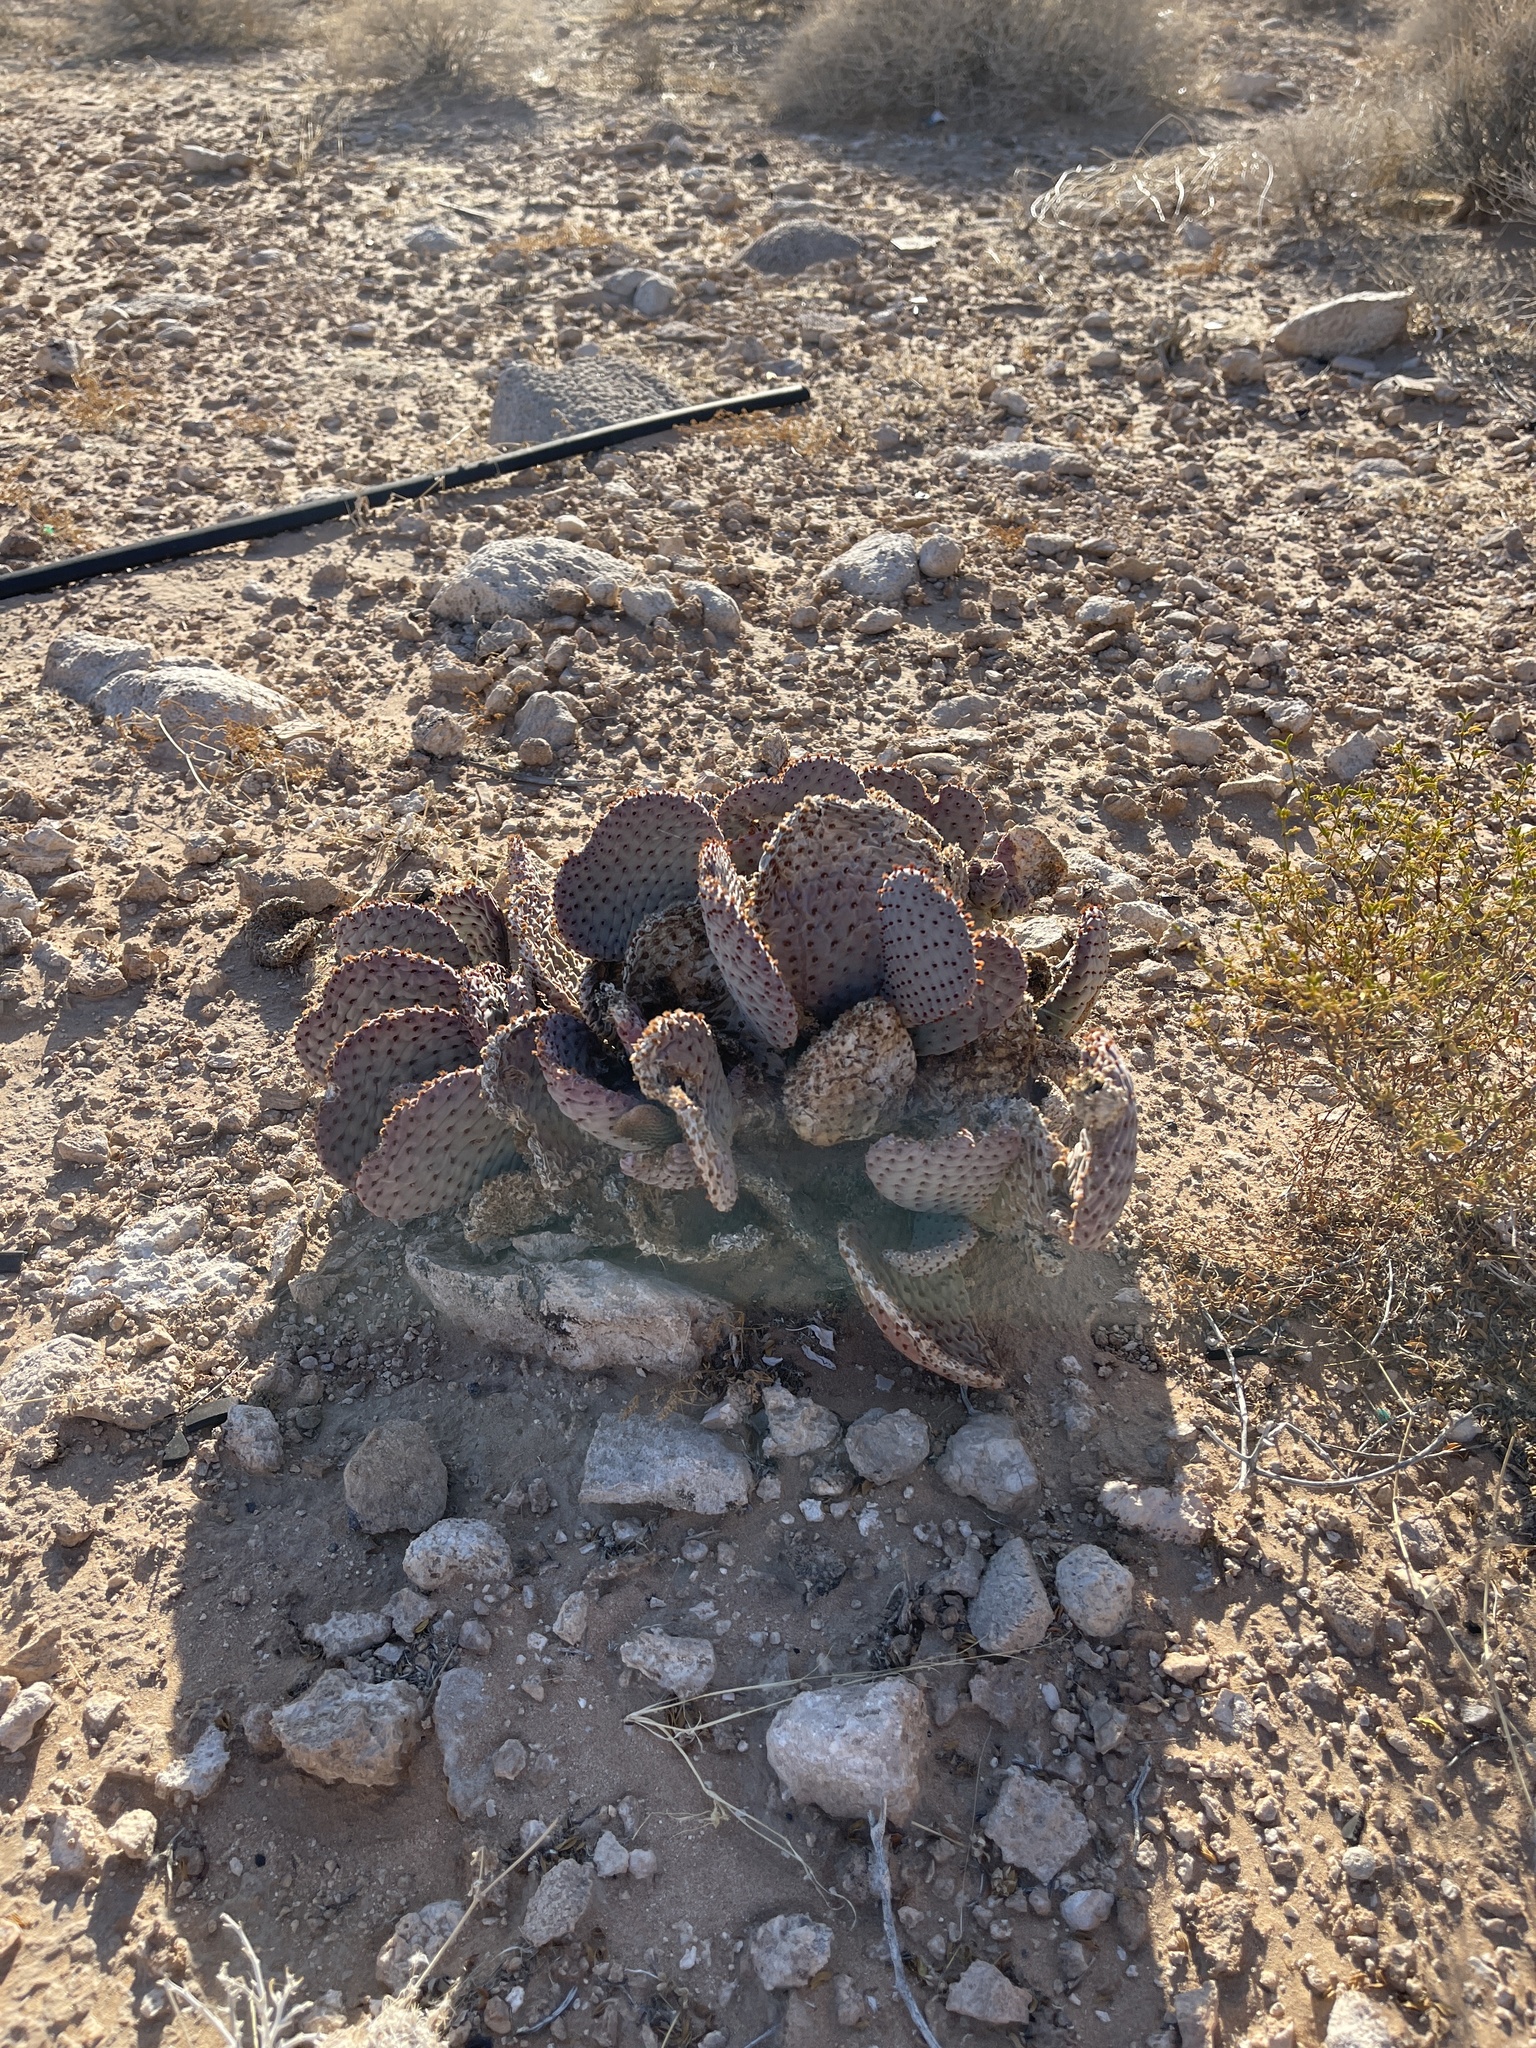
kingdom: Plantae
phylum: Tracheophyta
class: Magnoliopsida
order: Caryophyllales
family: Cactaceae
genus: Opuntia
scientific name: Opuntia basilaris
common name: Beavertail prickly-pear
